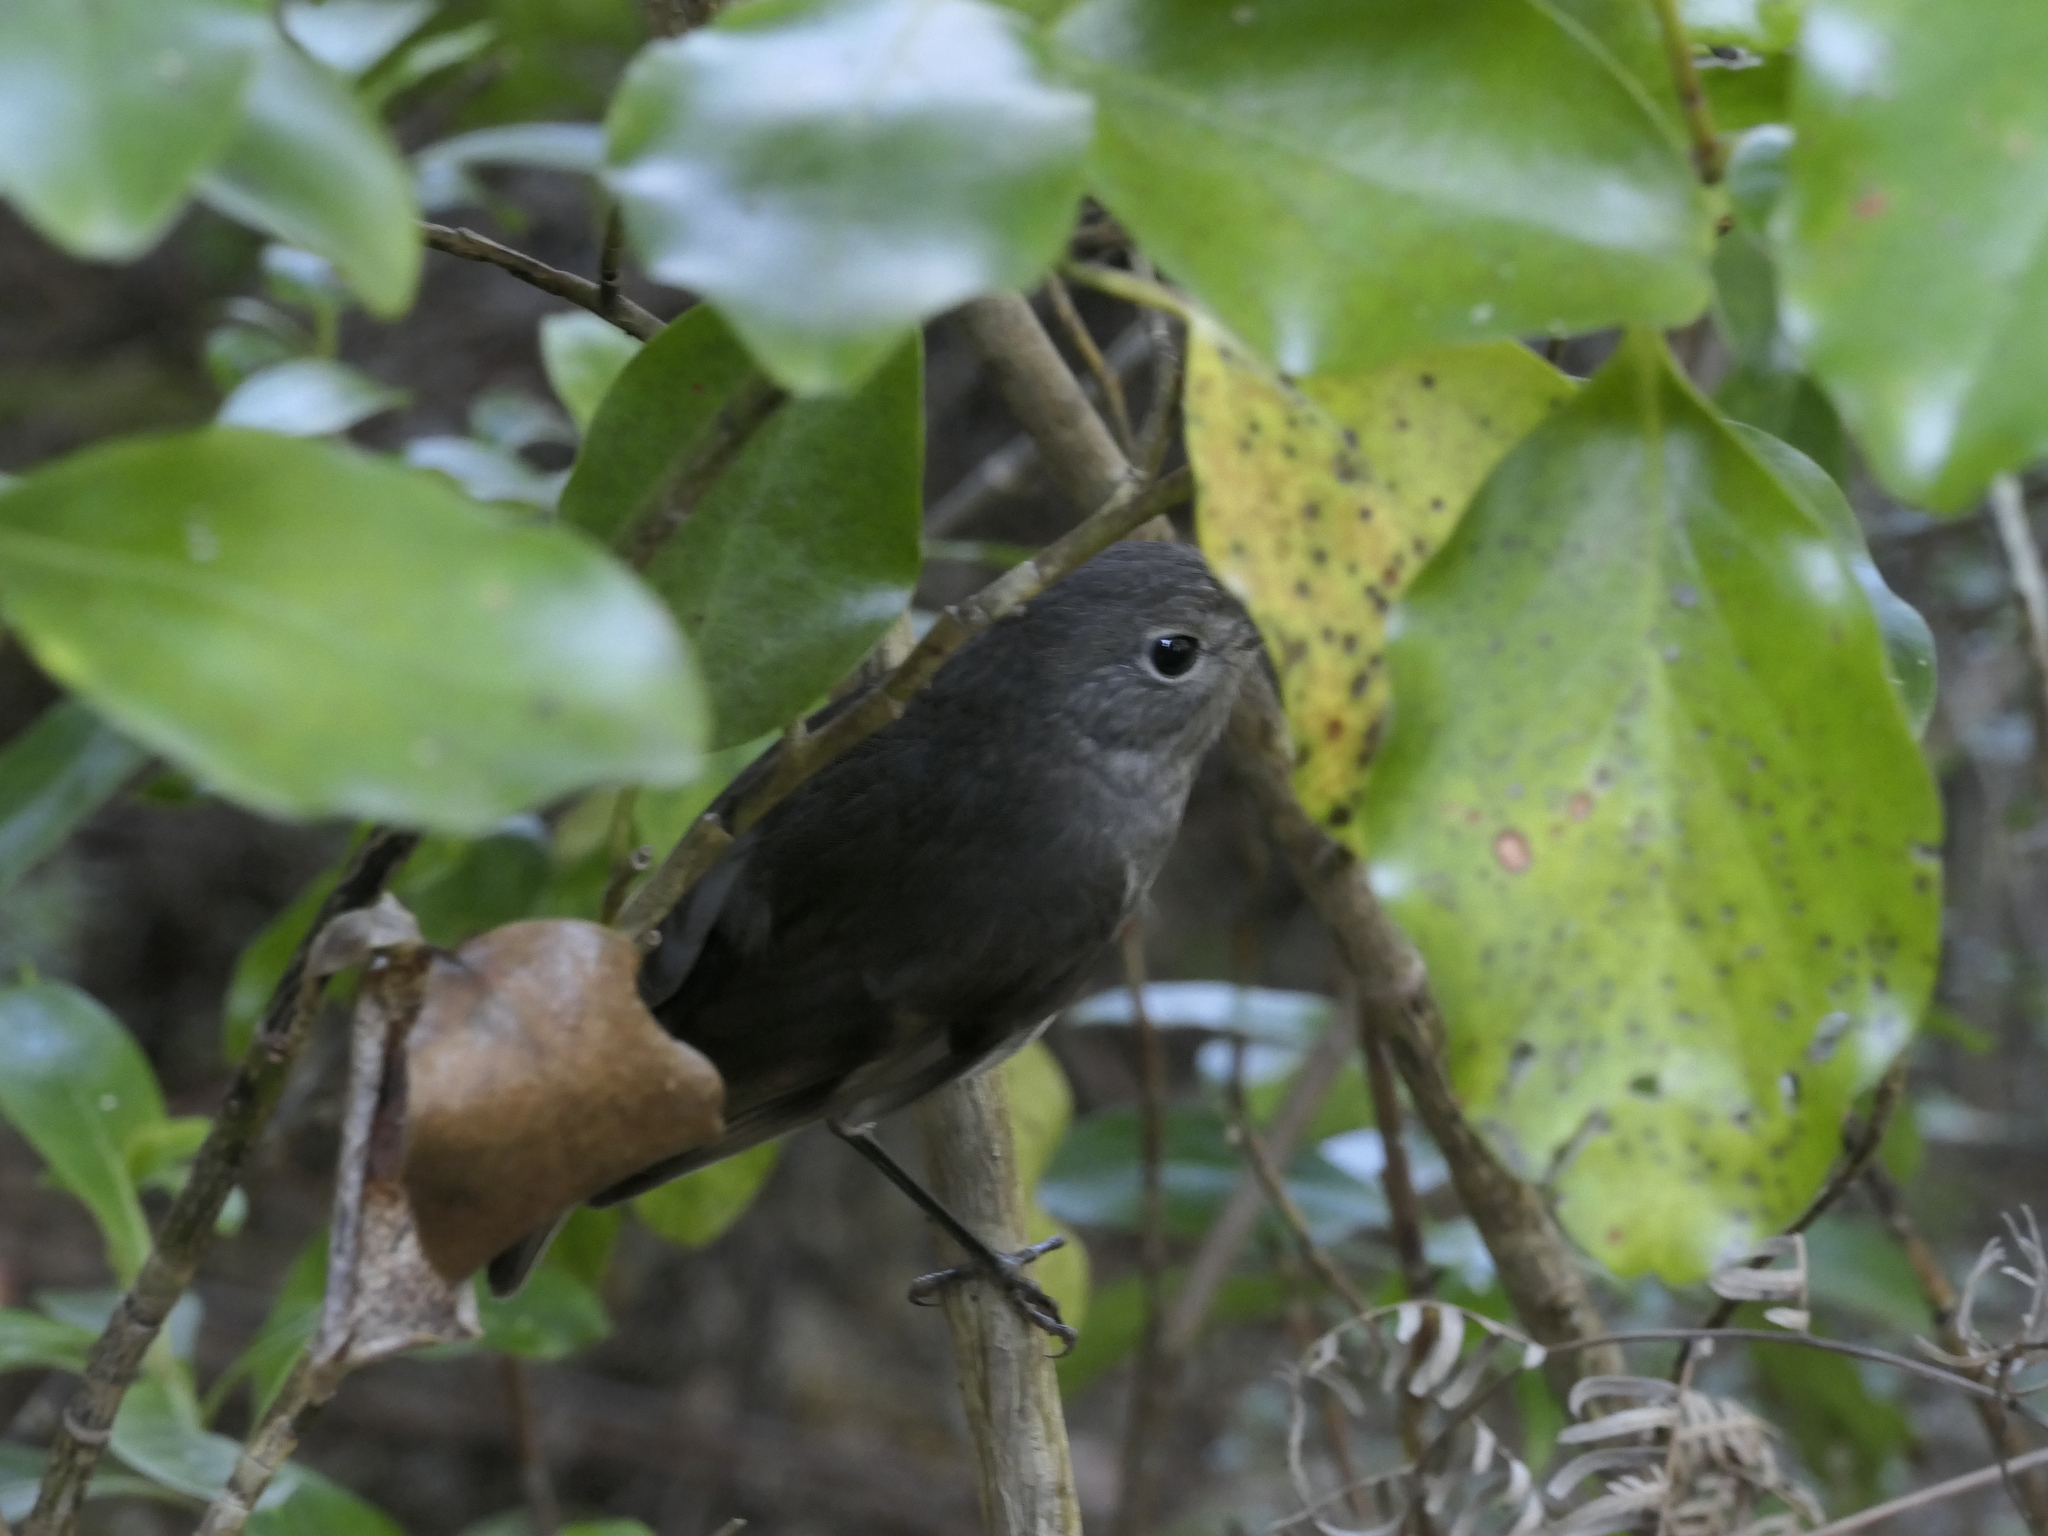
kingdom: Animalia
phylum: Chordata
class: Aves
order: Passeriformes
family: Petroicidae
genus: Petroica
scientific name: Petroica australis
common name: New zealand robin
